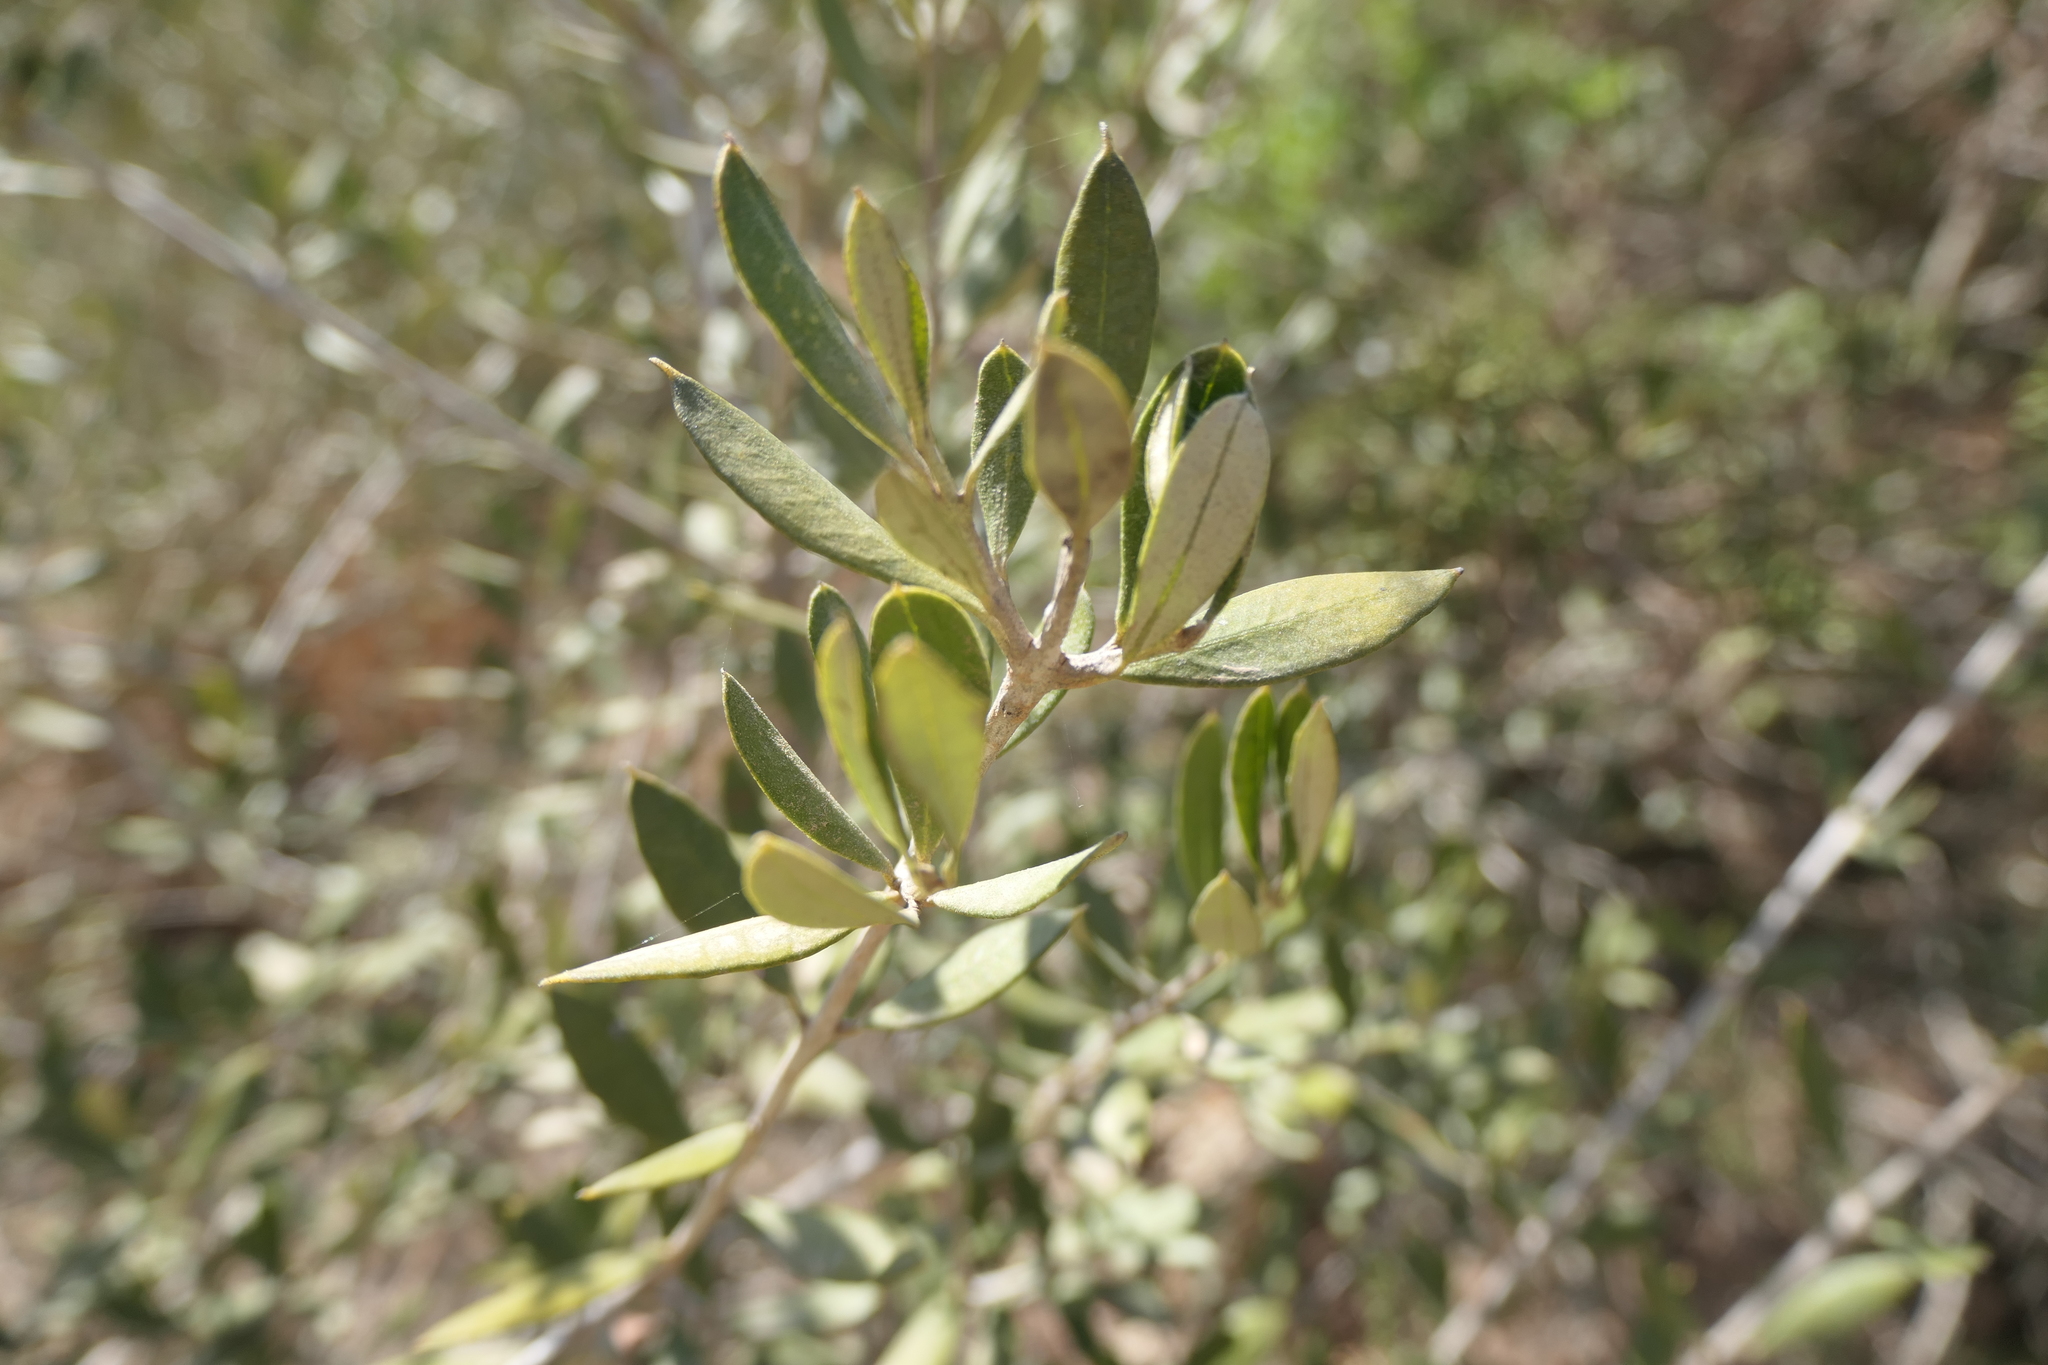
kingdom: Plantae
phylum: Tracheophyta
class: Magnoliopsida
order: Lamiales
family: Oleaceae
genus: Olea
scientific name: Olea europaea
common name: Olive
